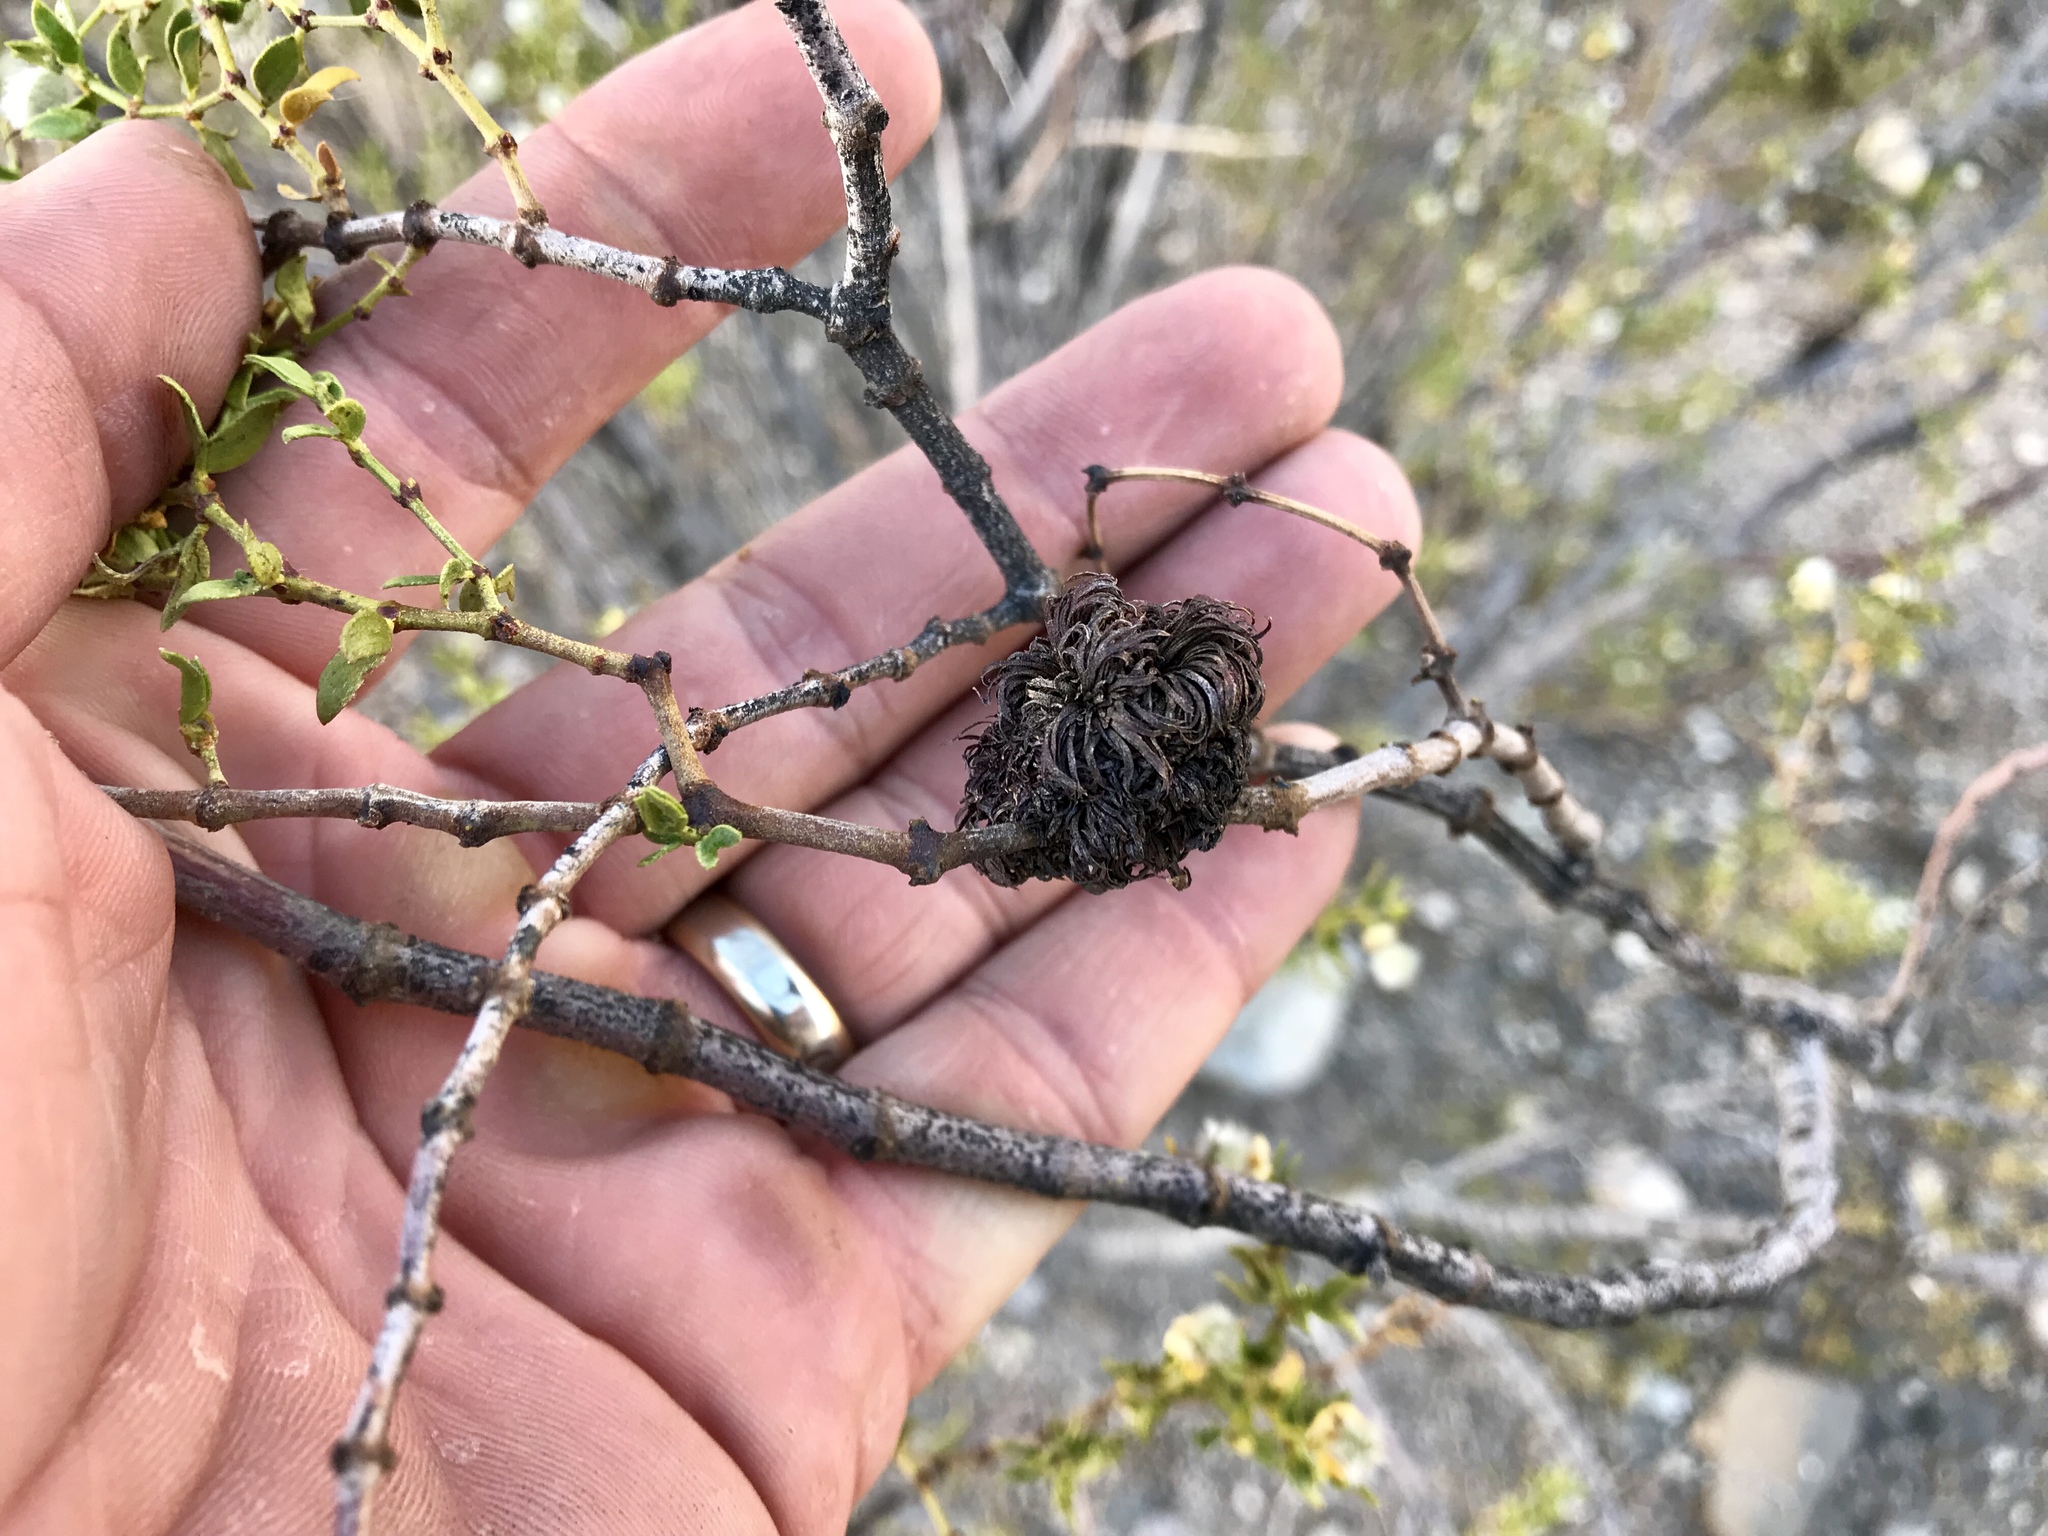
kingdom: Animalia
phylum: Arthropoda
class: Insecta
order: Diptera
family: Cecidomyiidae
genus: Asphondylia
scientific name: Asphondylia auripila
